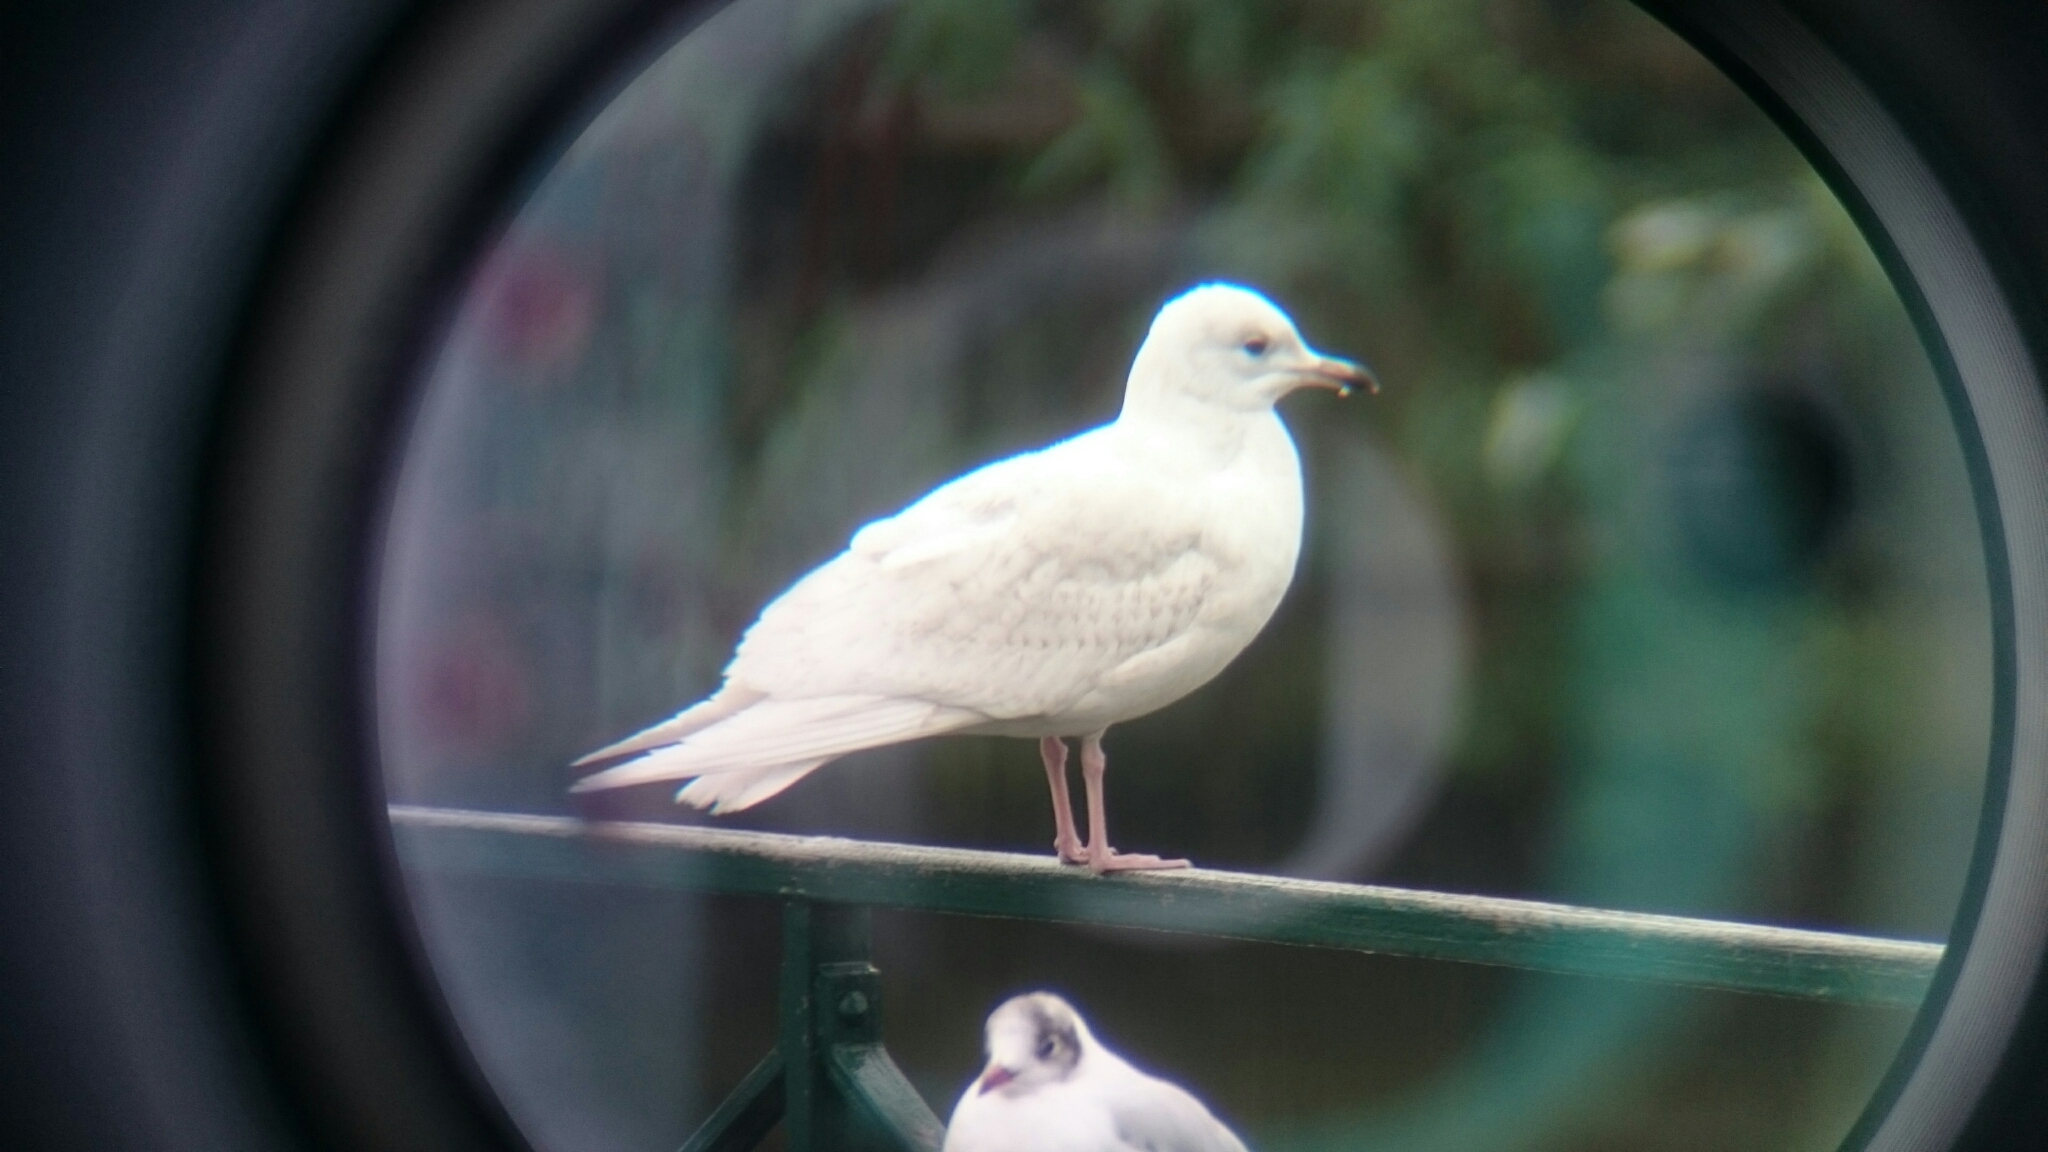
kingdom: Animalia
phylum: Chordata
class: Aves
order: Charadriiformes
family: Laridae
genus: Larus
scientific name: Larus glaucoides
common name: Iceland gull
